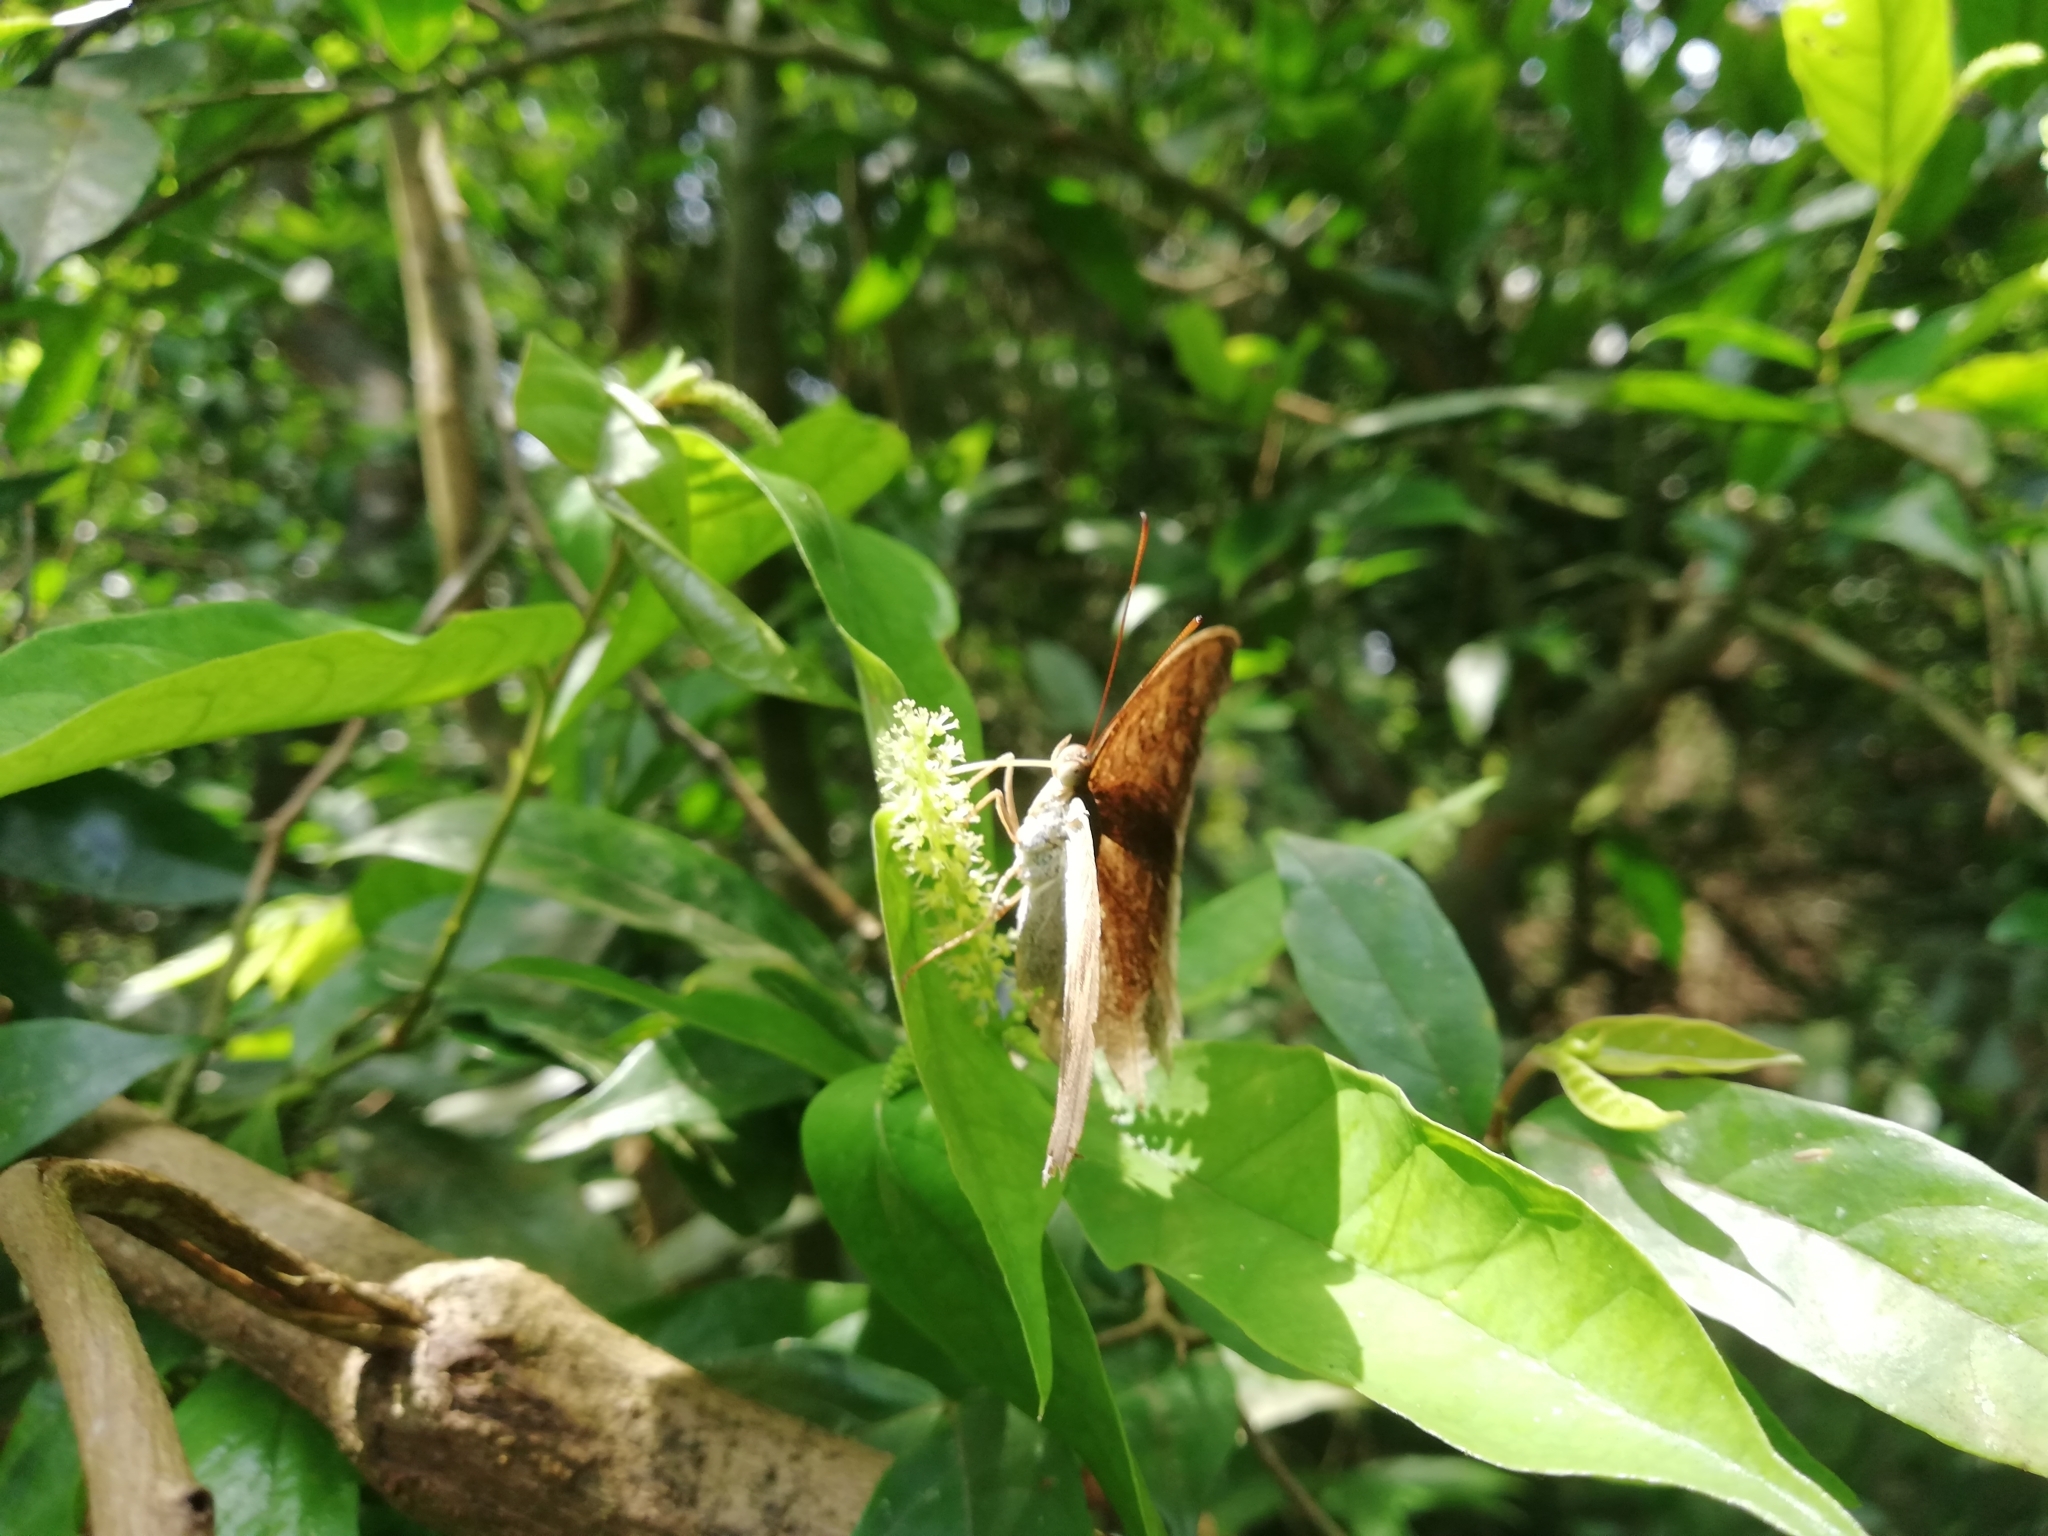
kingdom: Animalia
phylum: Arthropoda
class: Insecta
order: Lepidoptera
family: Nymphalidae
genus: Tanaecia
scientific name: Tanaecia lepidea
